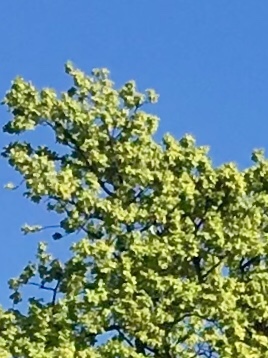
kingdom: Animalia
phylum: Chordata
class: Aves
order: Columbiformes
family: Columbidae
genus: Hemiphaga
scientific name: Hemiphaga novaeseelandiae
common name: New zealand pigeon
